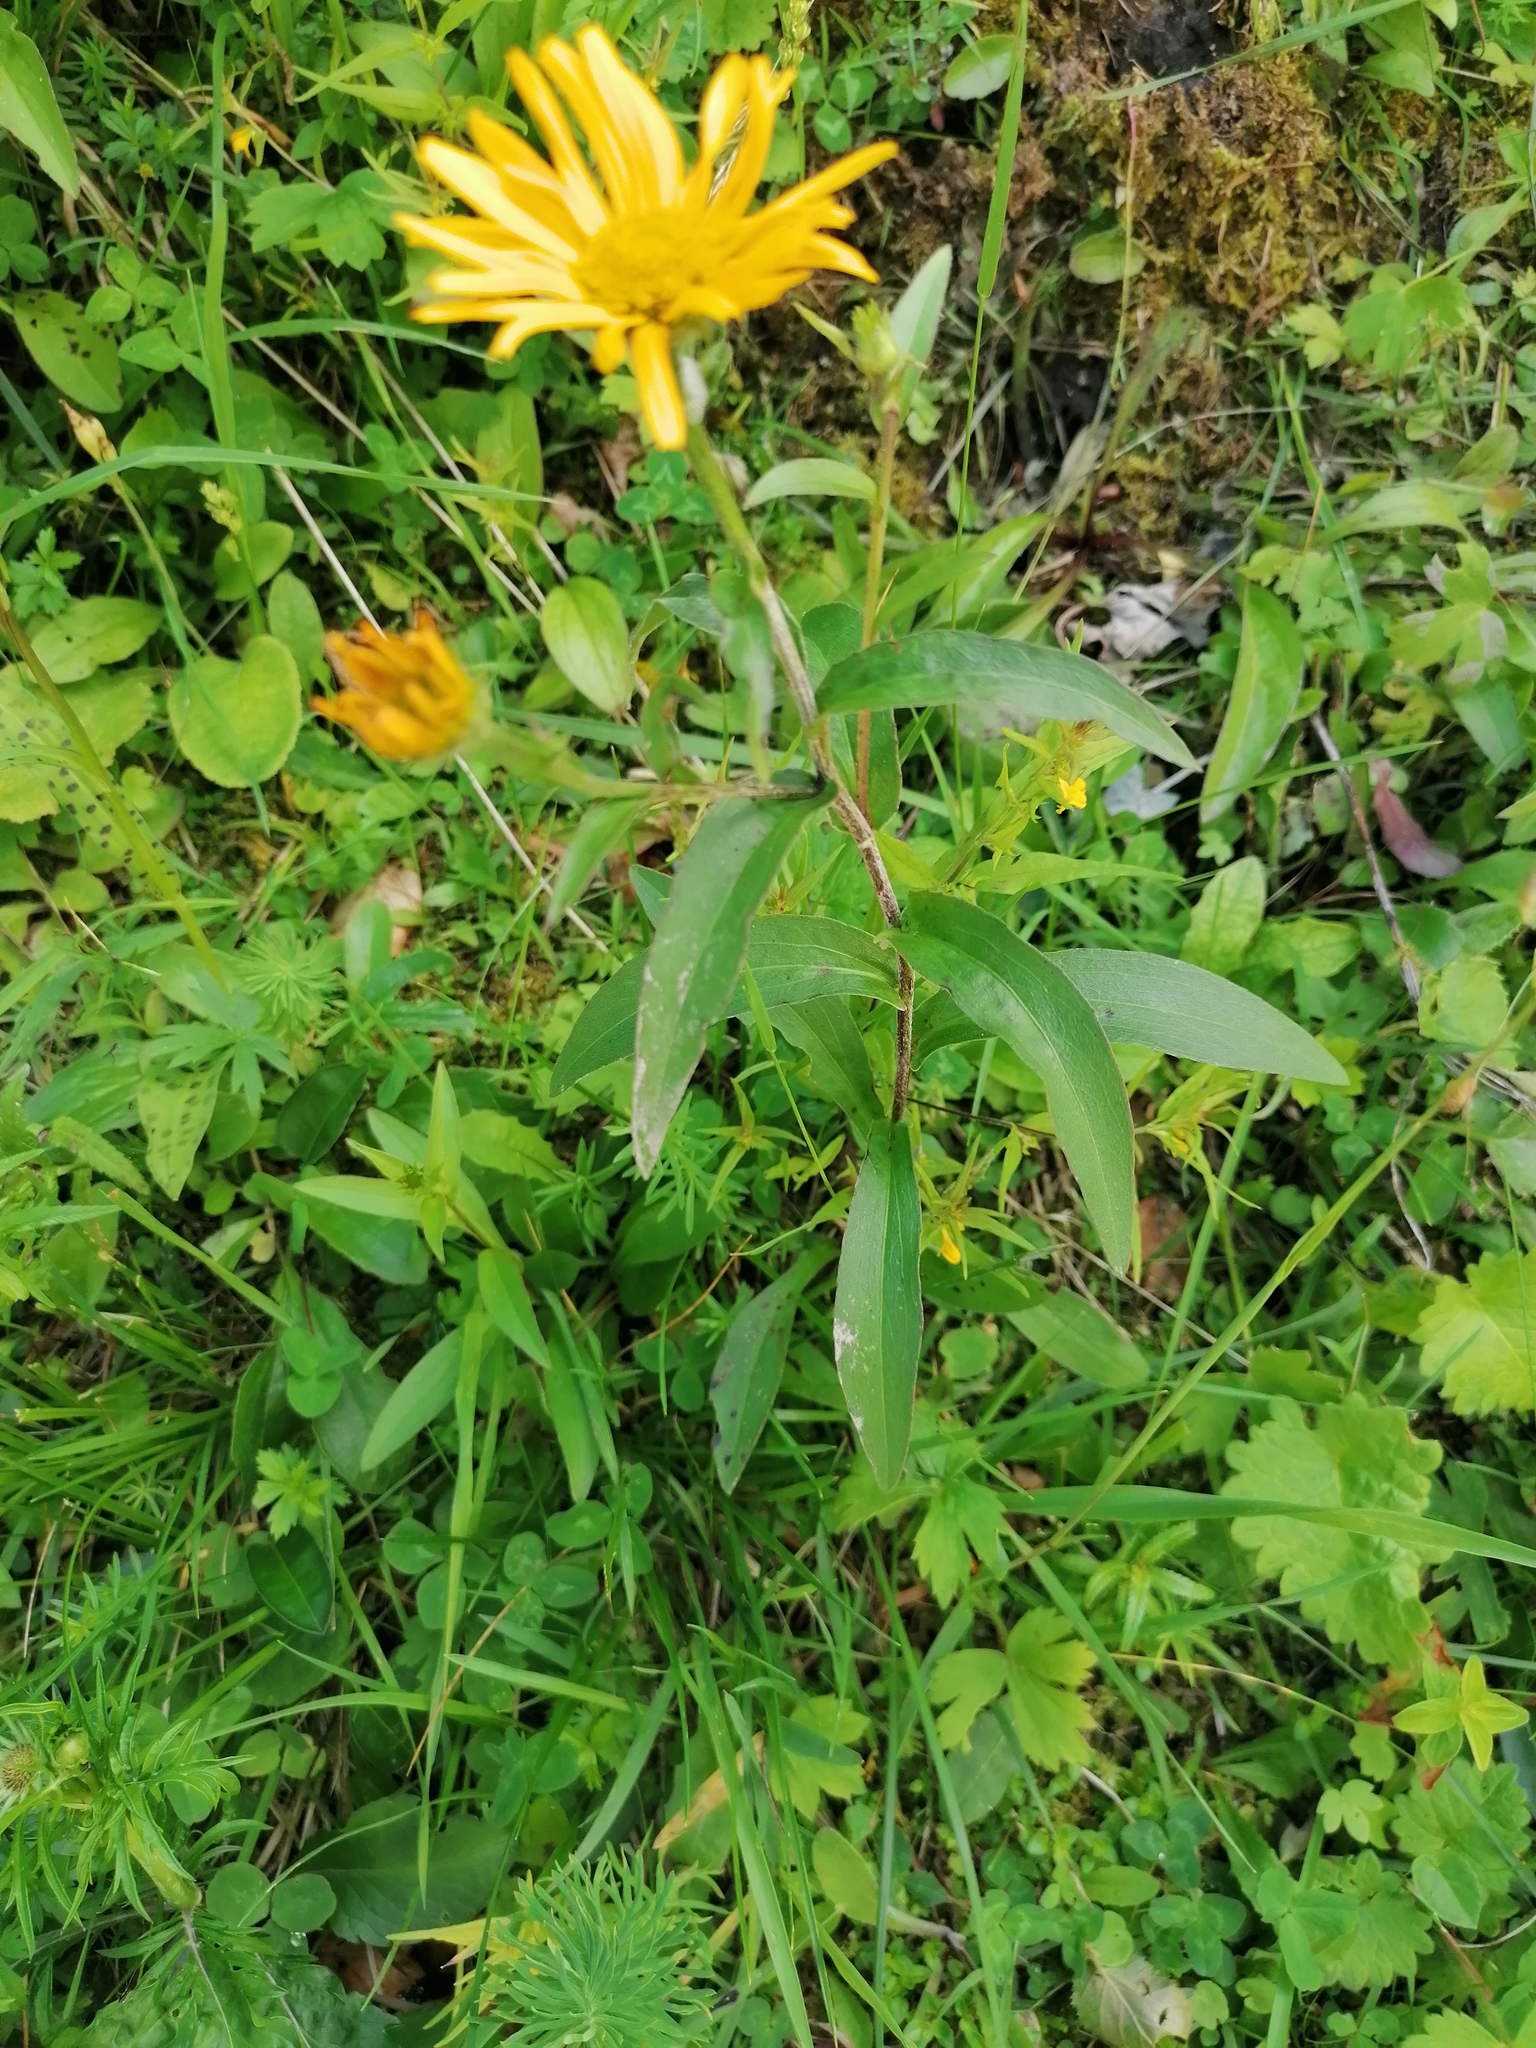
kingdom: Plantae
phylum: Tracheophyta
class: Magnoliopsida
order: Asterales
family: Asteraceae
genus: Buphthalmum
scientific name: Buphthalmum salicifolium
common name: Willow-leaved yellow-oxeye
